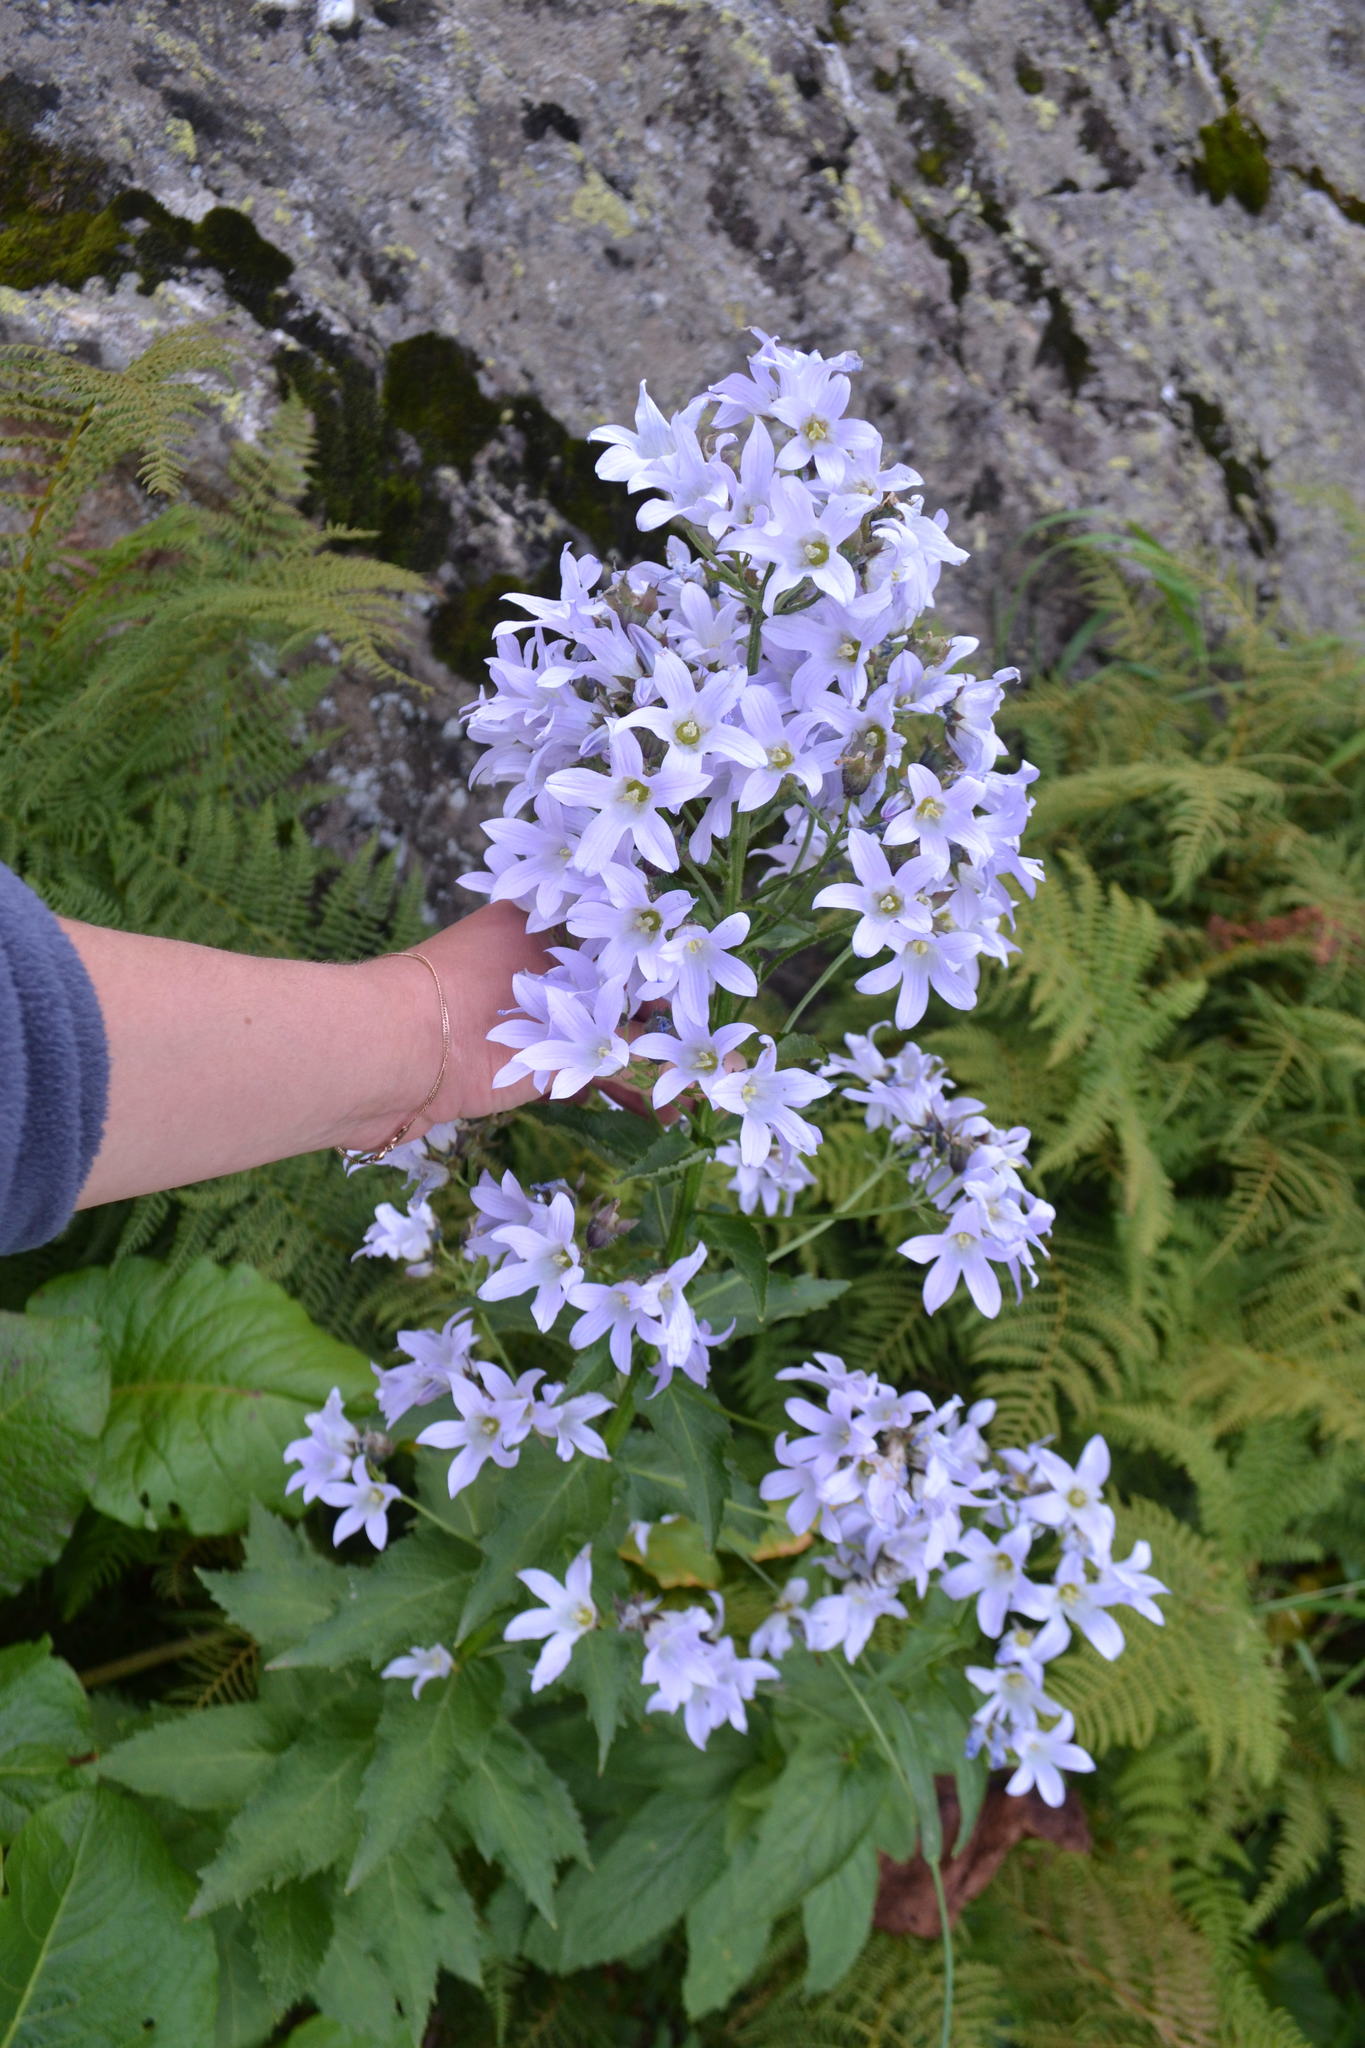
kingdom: Plantae
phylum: Tracheophyta
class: Magnoliopsida
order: Asterales
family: Campanulaceae
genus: Campanula
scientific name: Campanula lactiflora
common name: Milky bellflower
